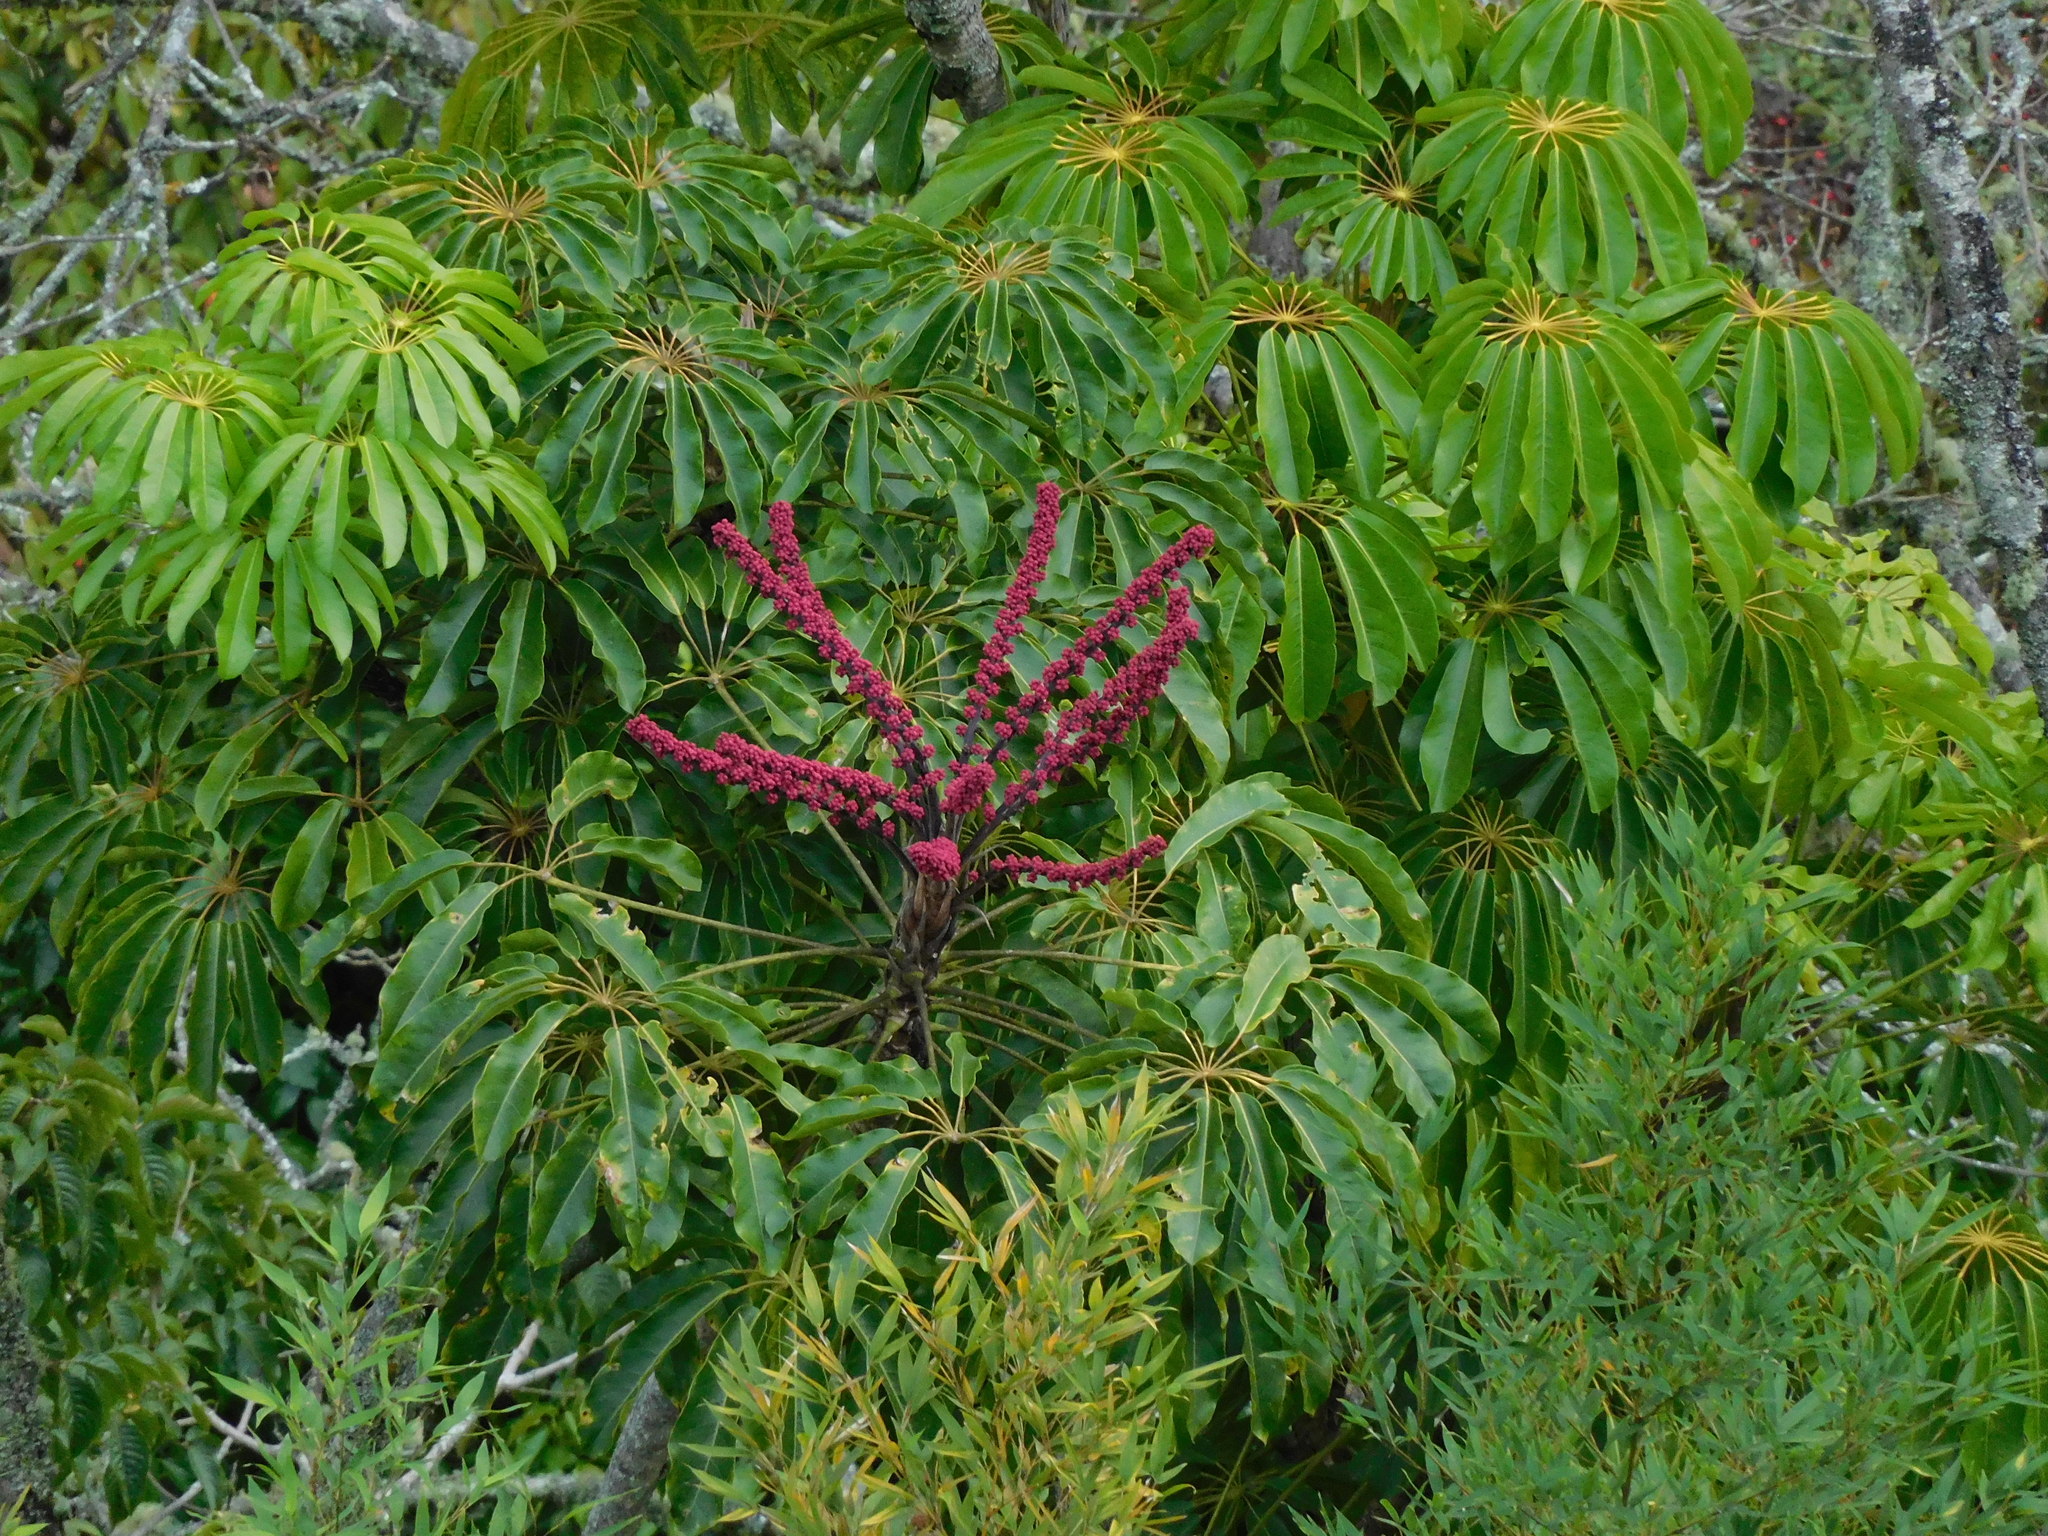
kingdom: Plantae
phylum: Tracheophyta
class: Magnoliopsida
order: Apiales
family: Araliaceae
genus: Heptapleurum
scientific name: Heptapleurum actinophyllum
